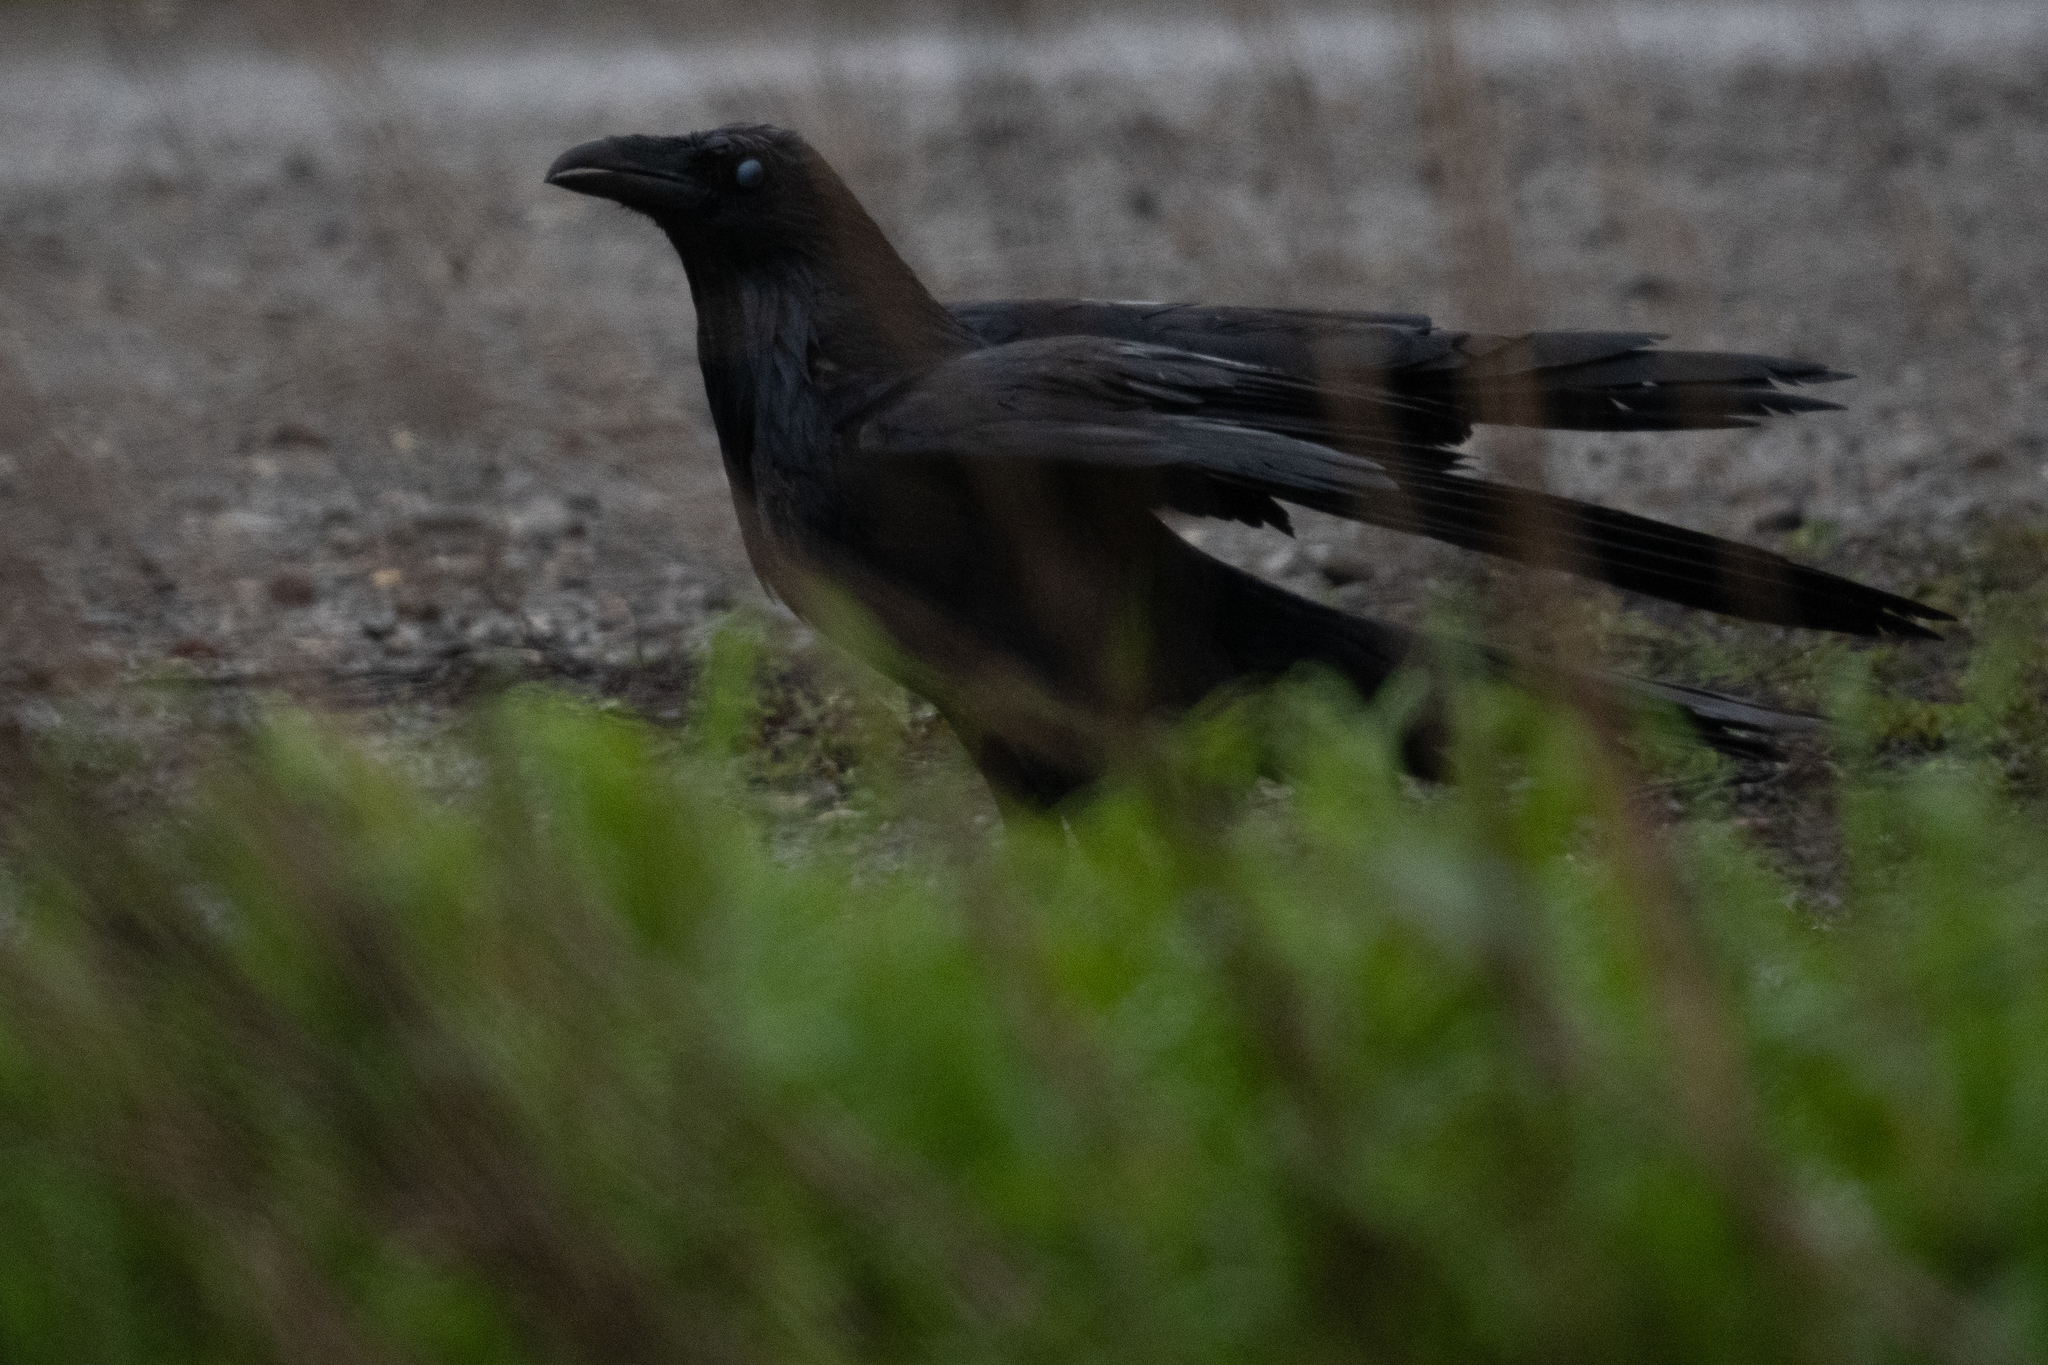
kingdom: Animalia
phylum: Chordata
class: Aves
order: Passeriformes
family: Corvidae
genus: Corvus
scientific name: Corvus corax
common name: Common raven
